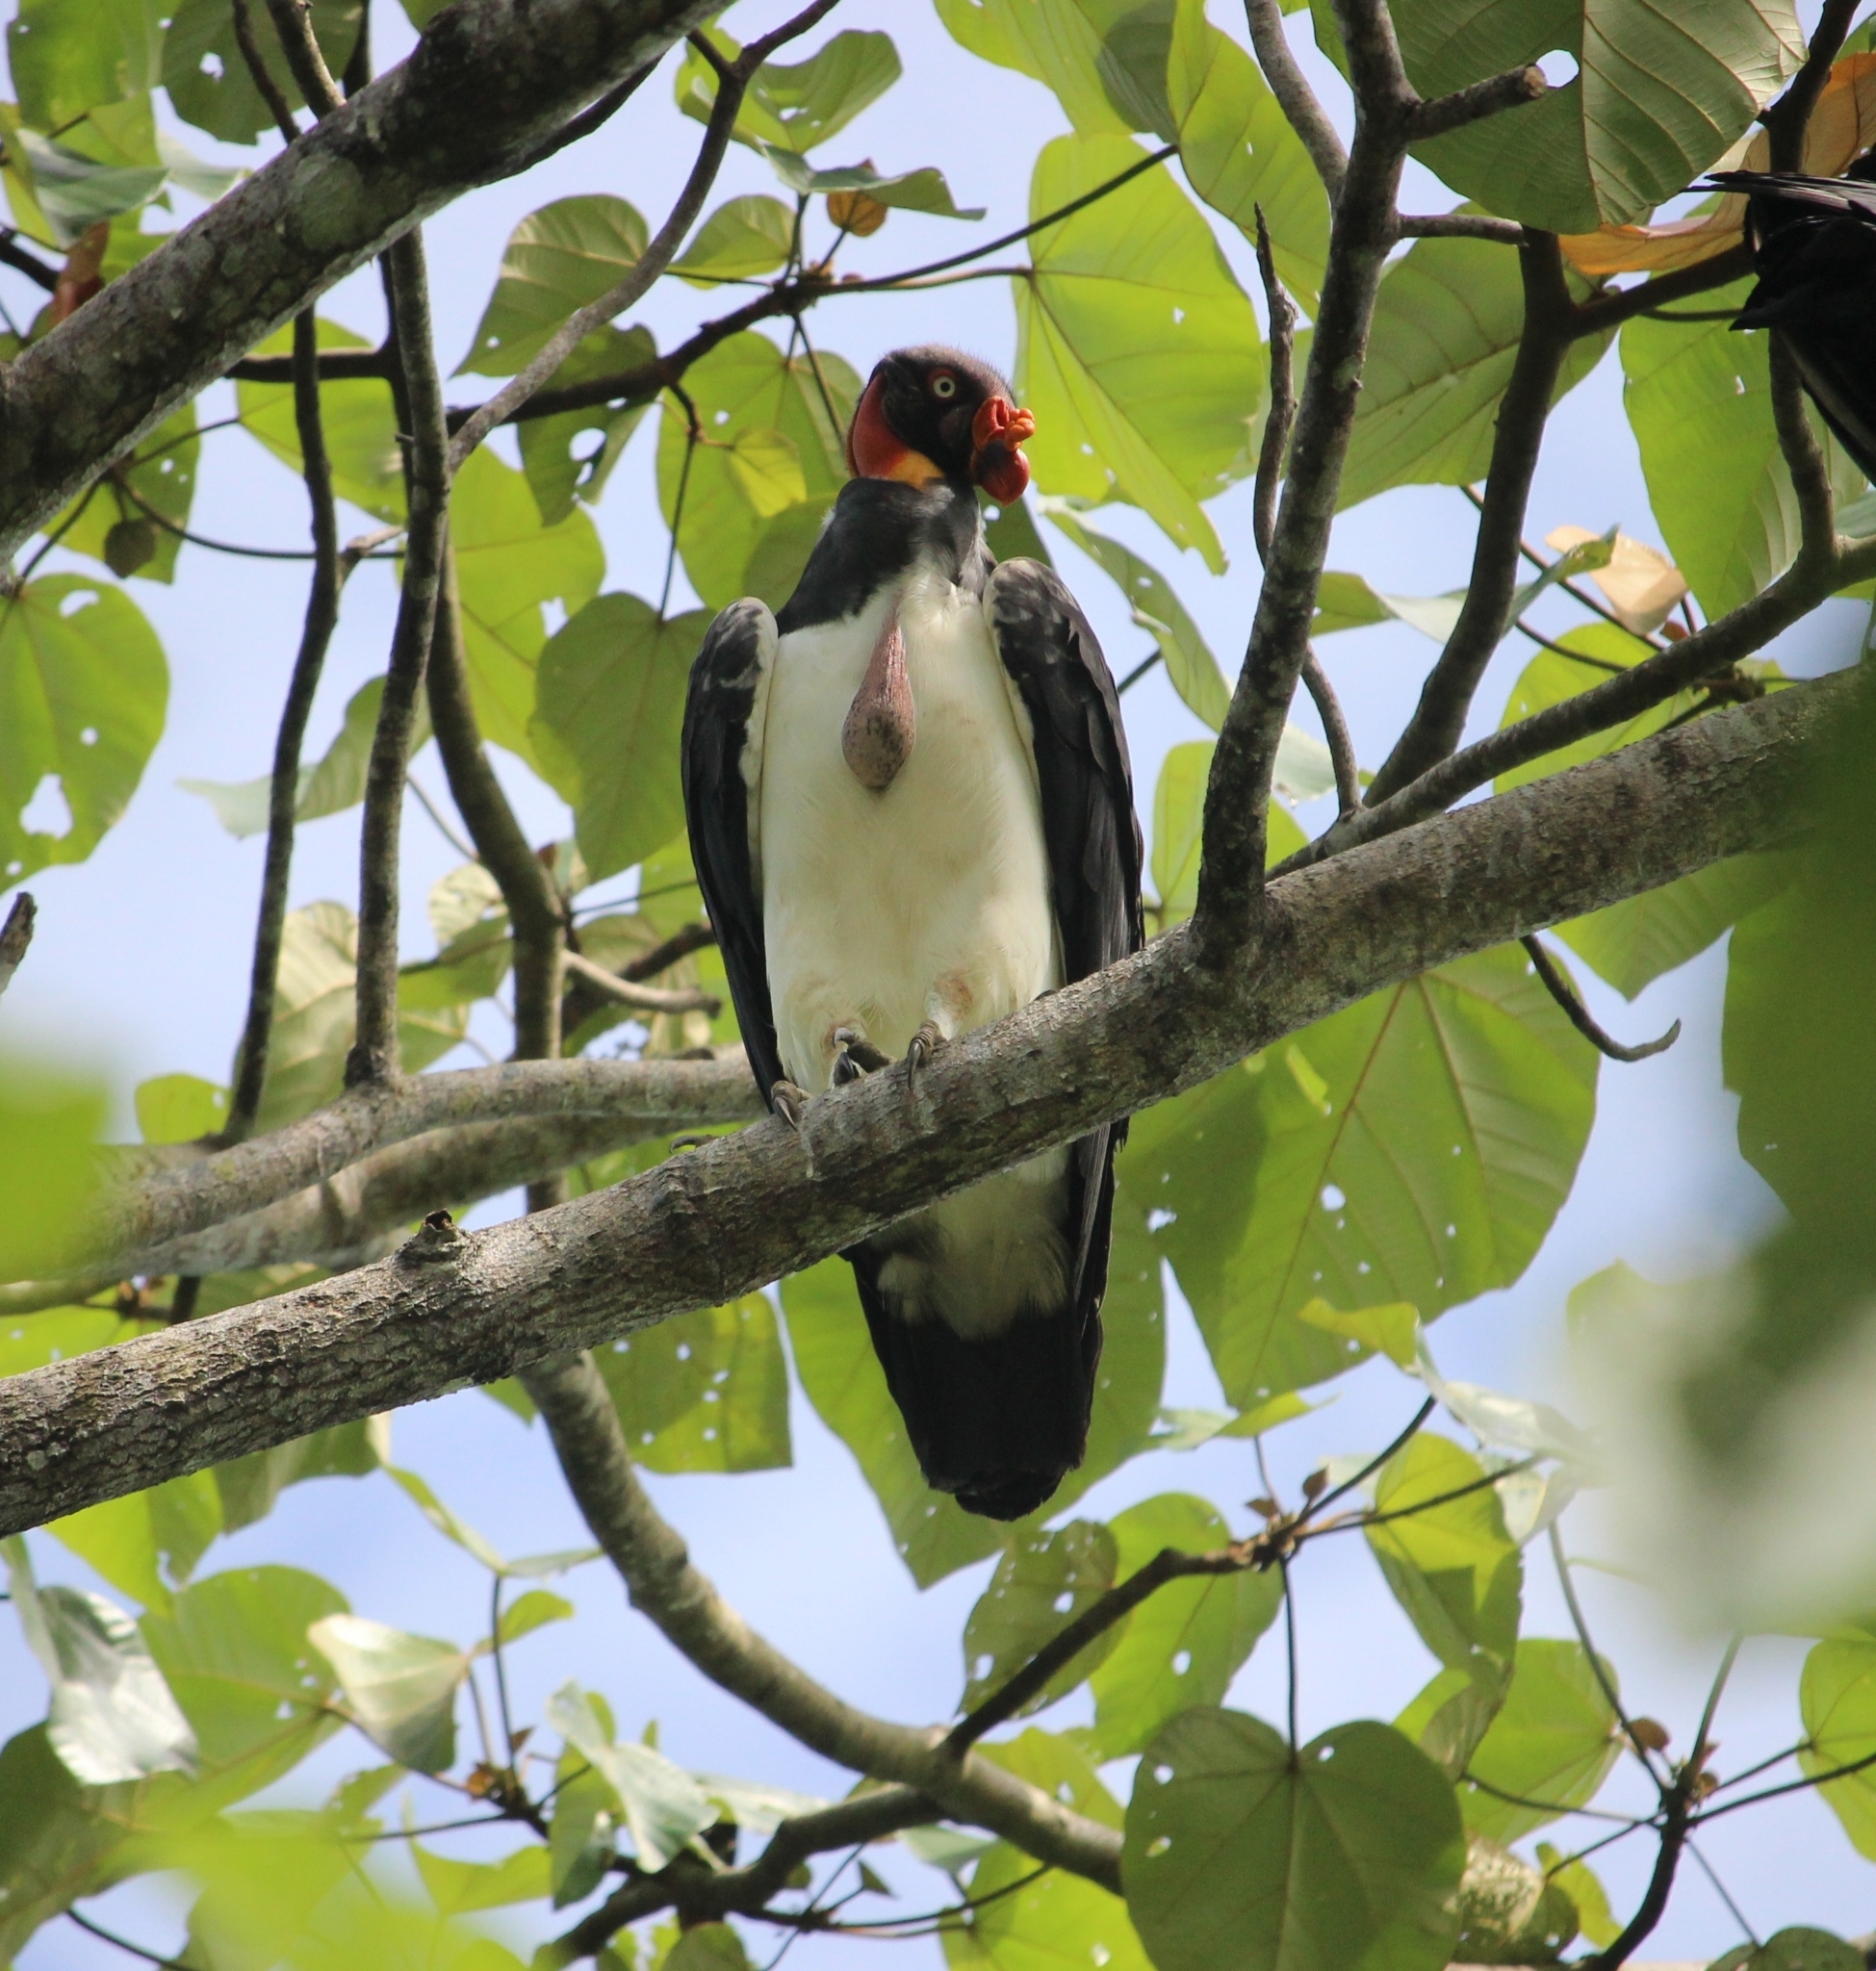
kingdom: Animalia
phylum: Chordata
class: Aves
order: Accipitriformes
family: Cathartidae
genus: Sarcoramphus
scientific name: Sarcoramphus papa
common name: King vulture
